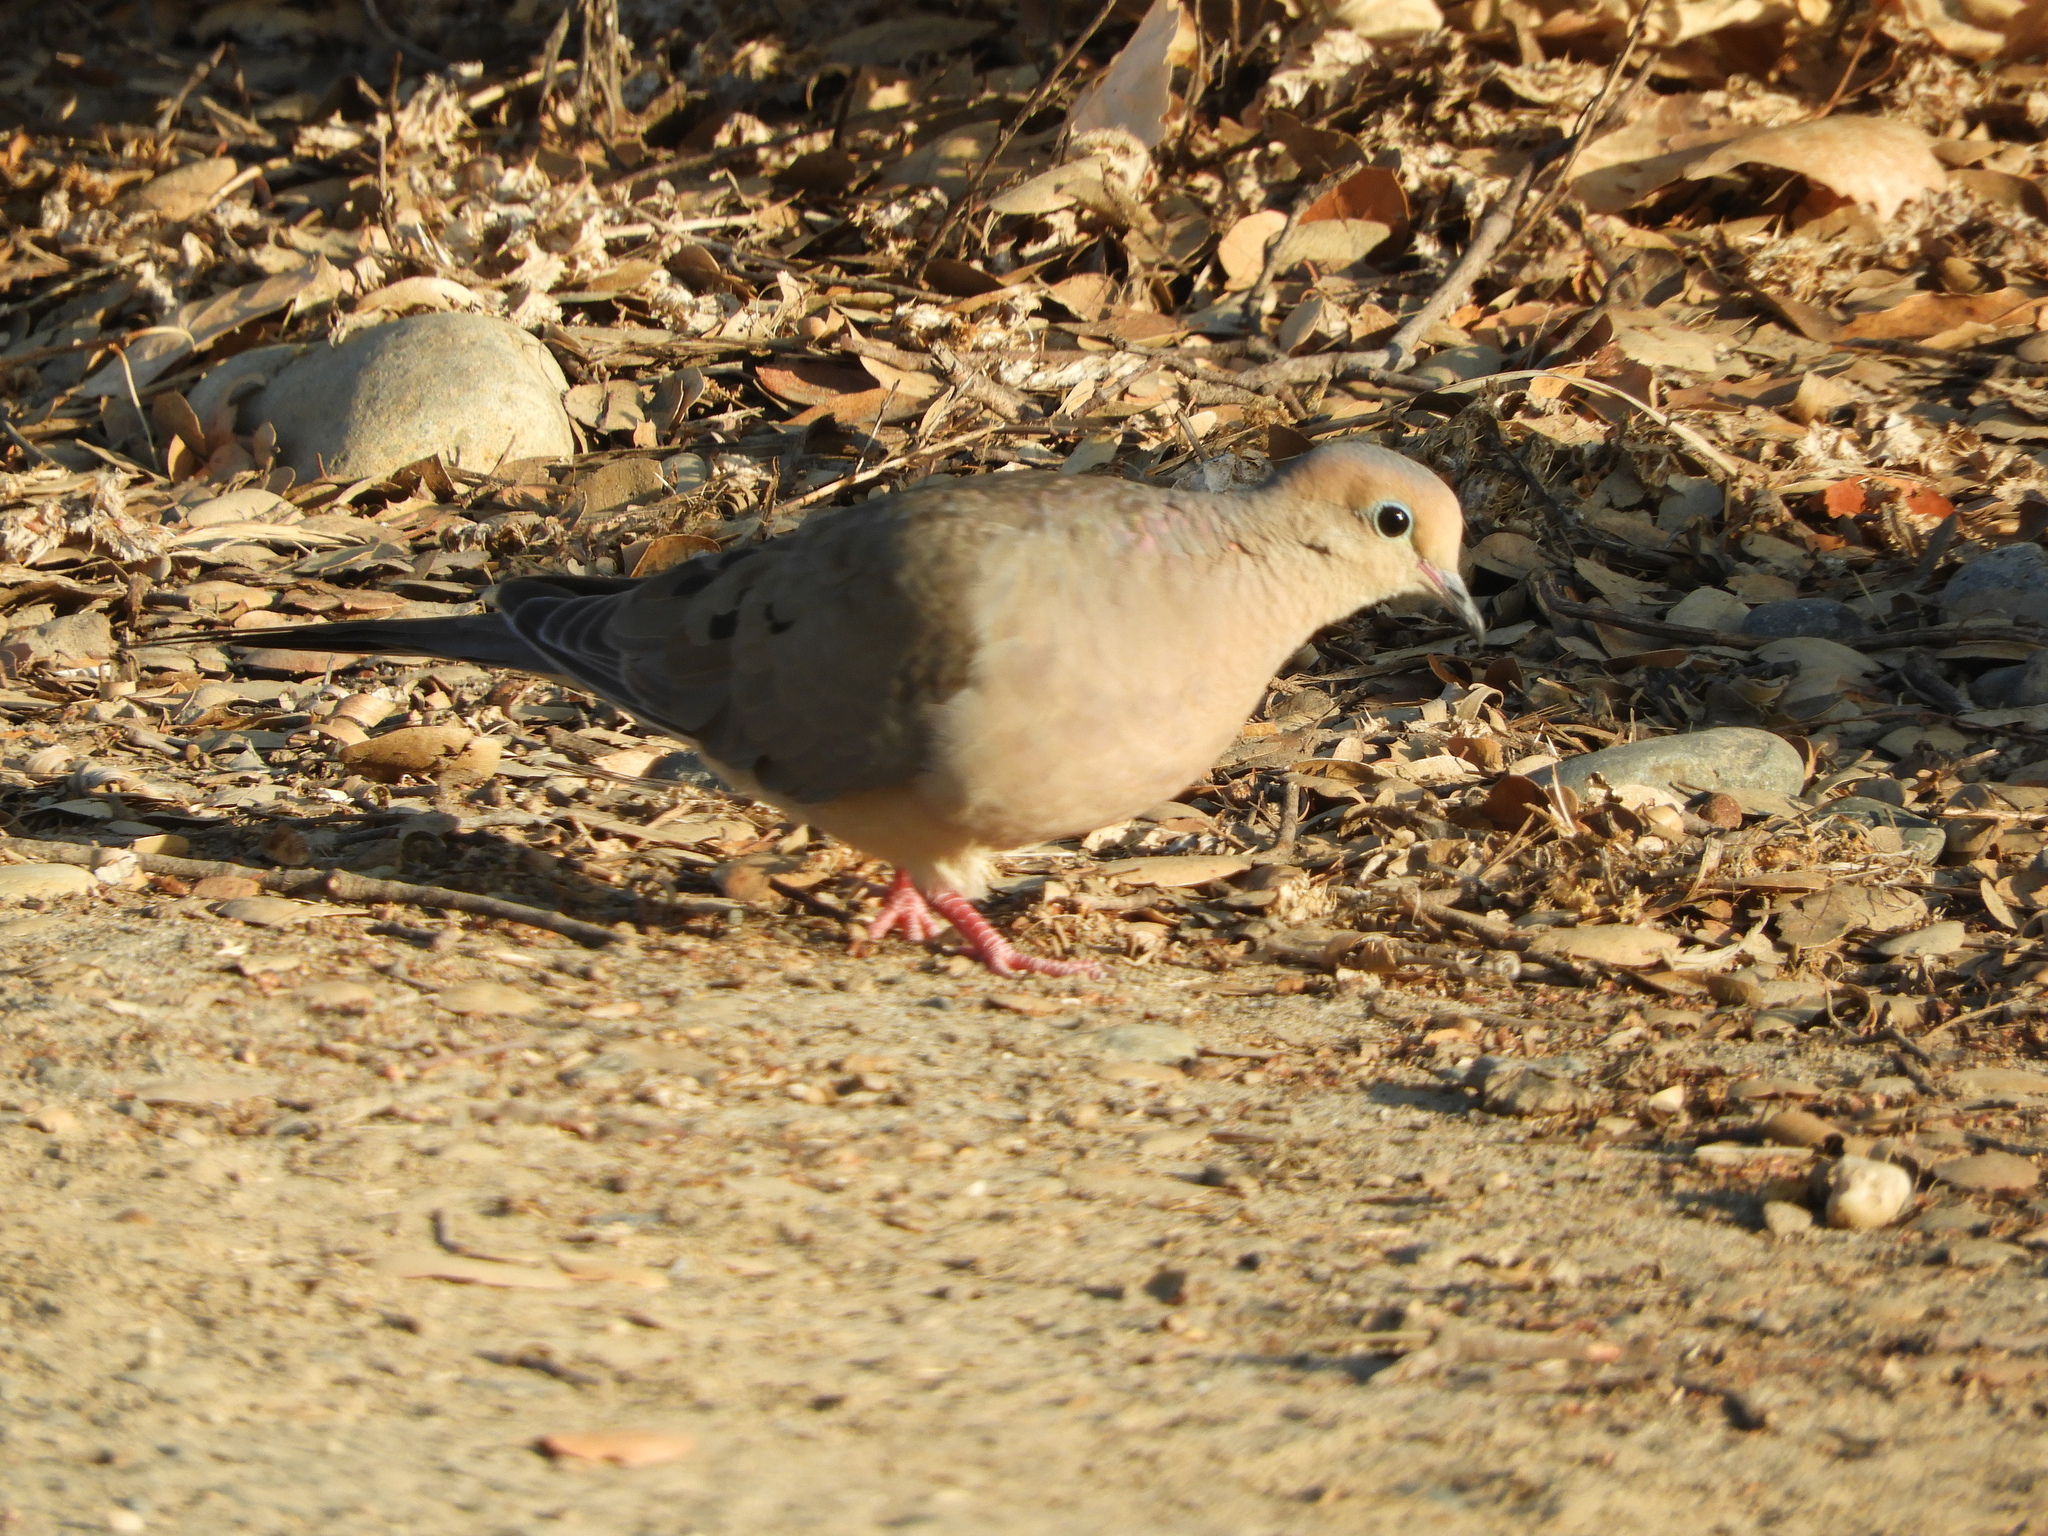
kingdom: Animalia
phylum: Chordata
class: Aves
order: Columbiformes
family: Columbidae
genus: Zenaida
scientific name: Zenaida macroura
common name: Mourning dove
